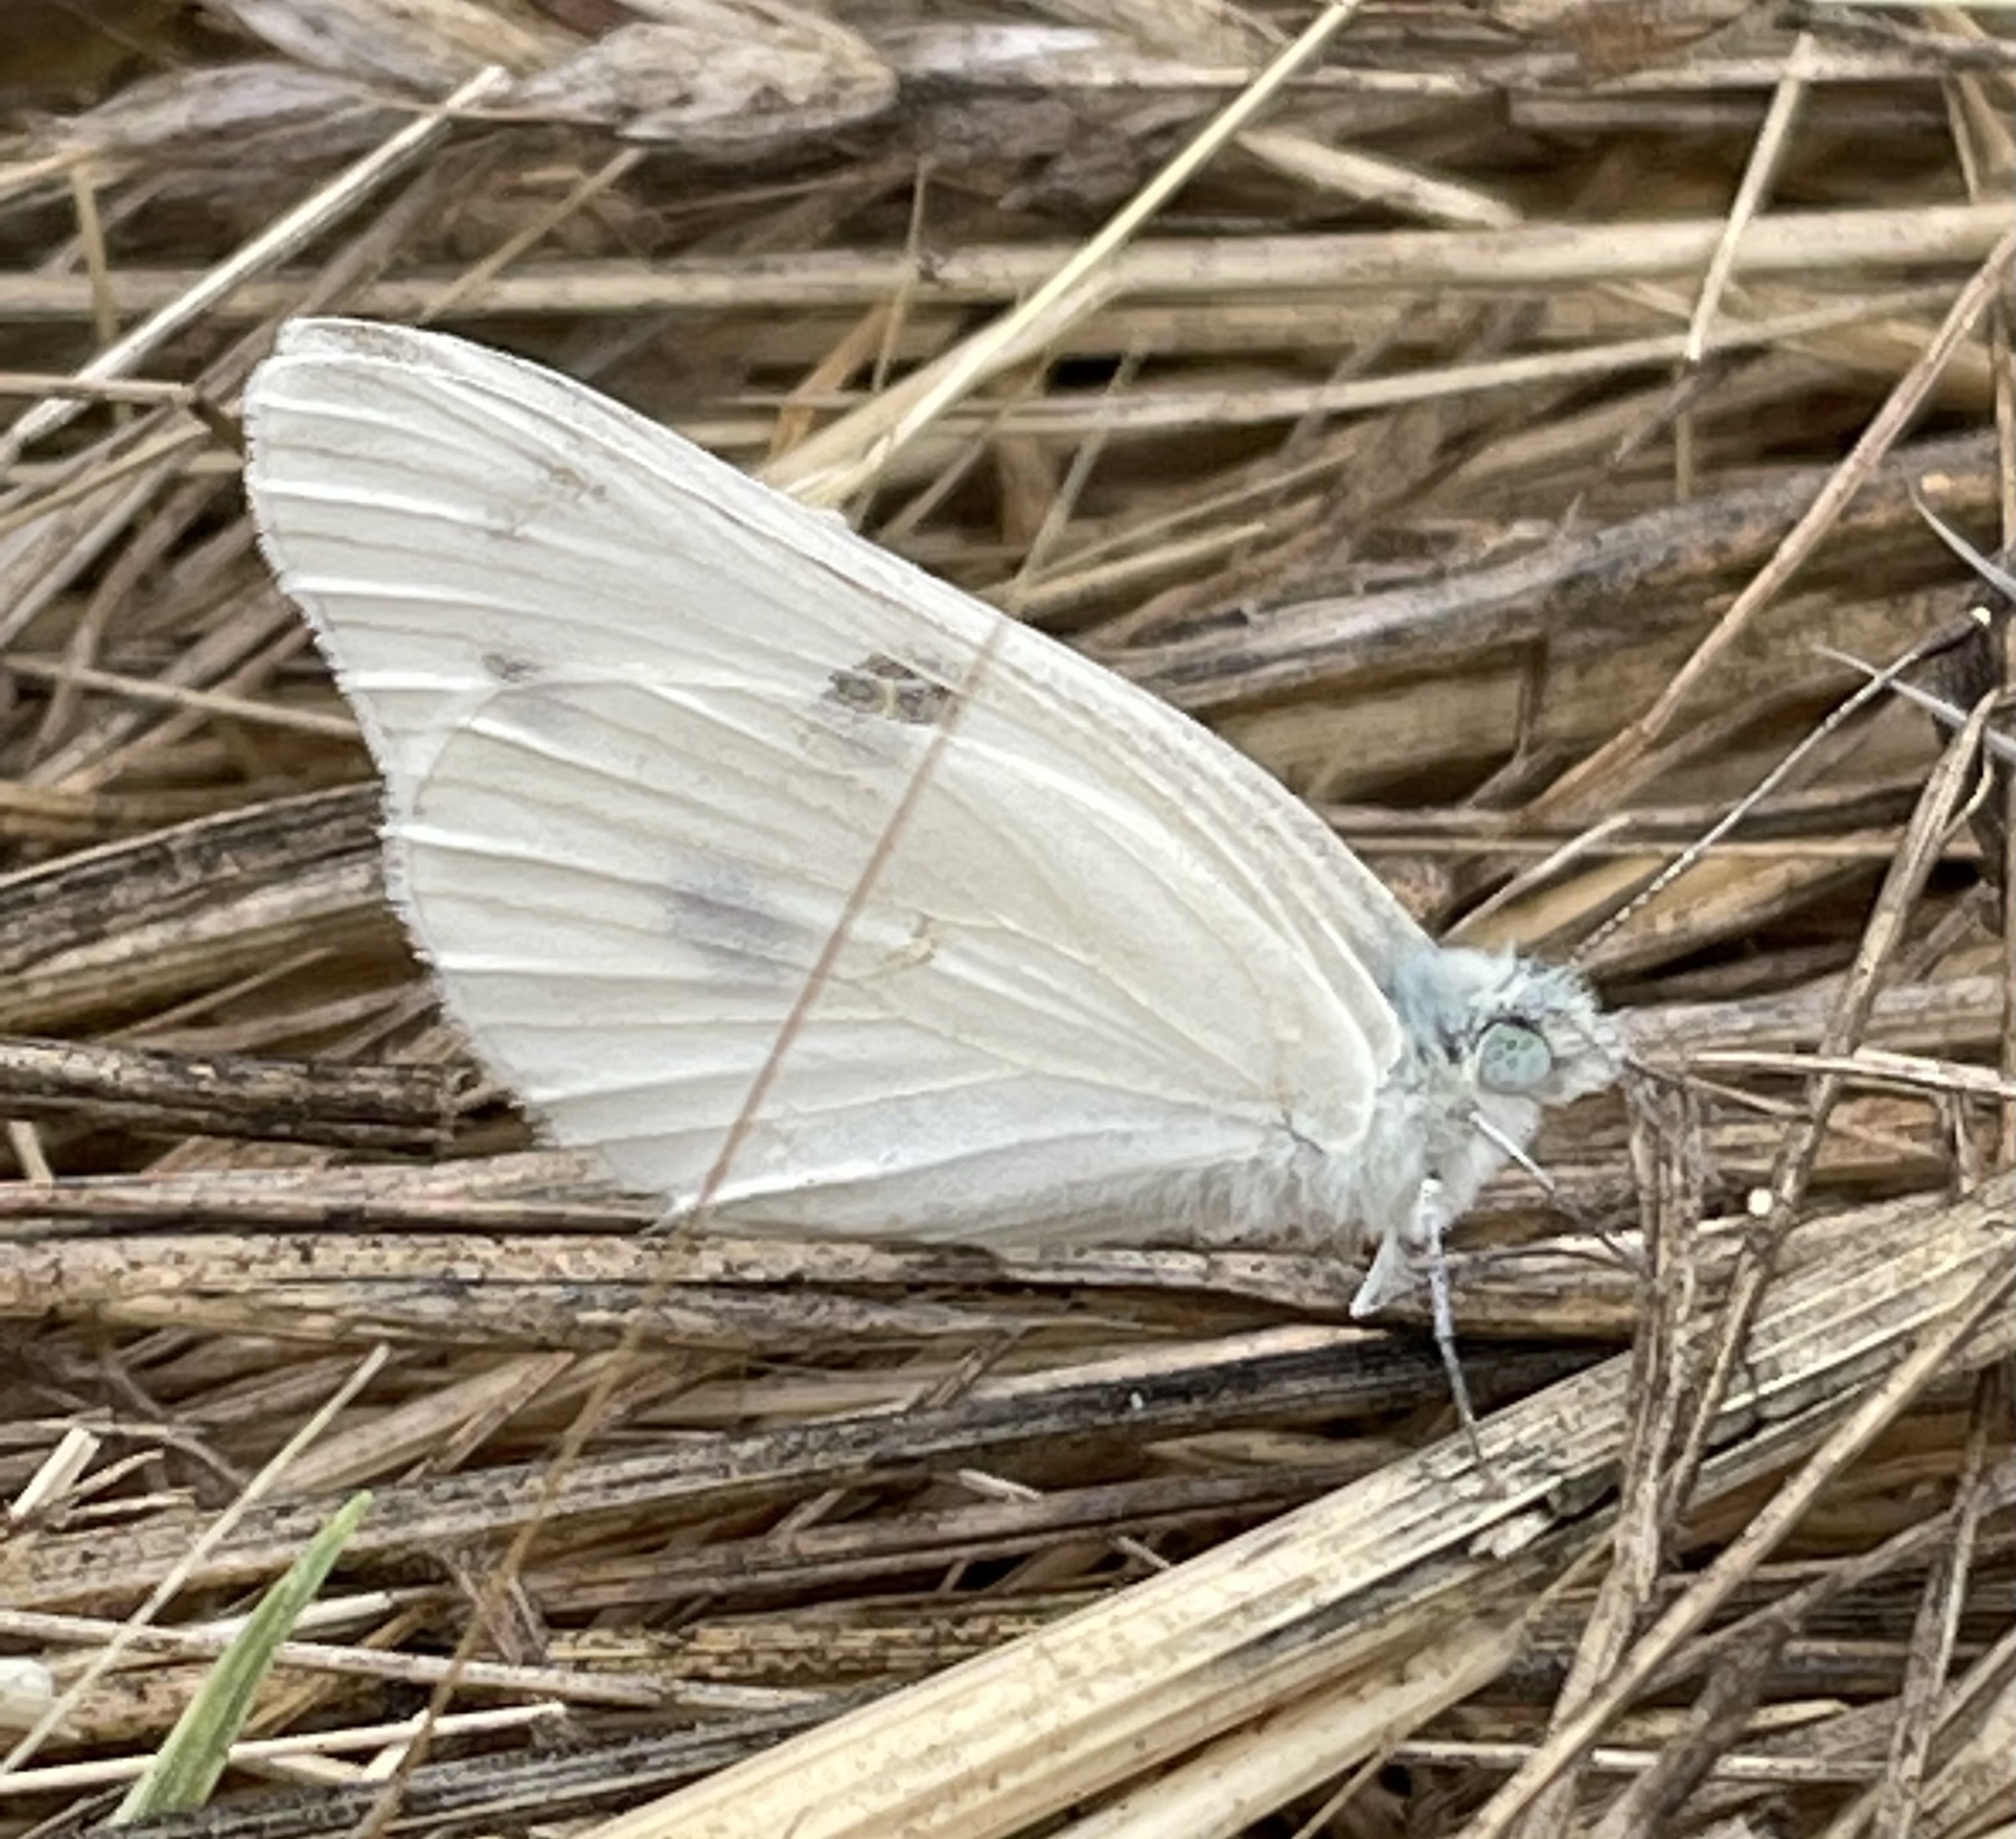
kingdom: Animalia
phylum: Arthropoda
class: Insecta
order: Lepidoptera
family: Pieridae
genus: Pontia
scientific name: Pontia protodice
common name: Checkered white
